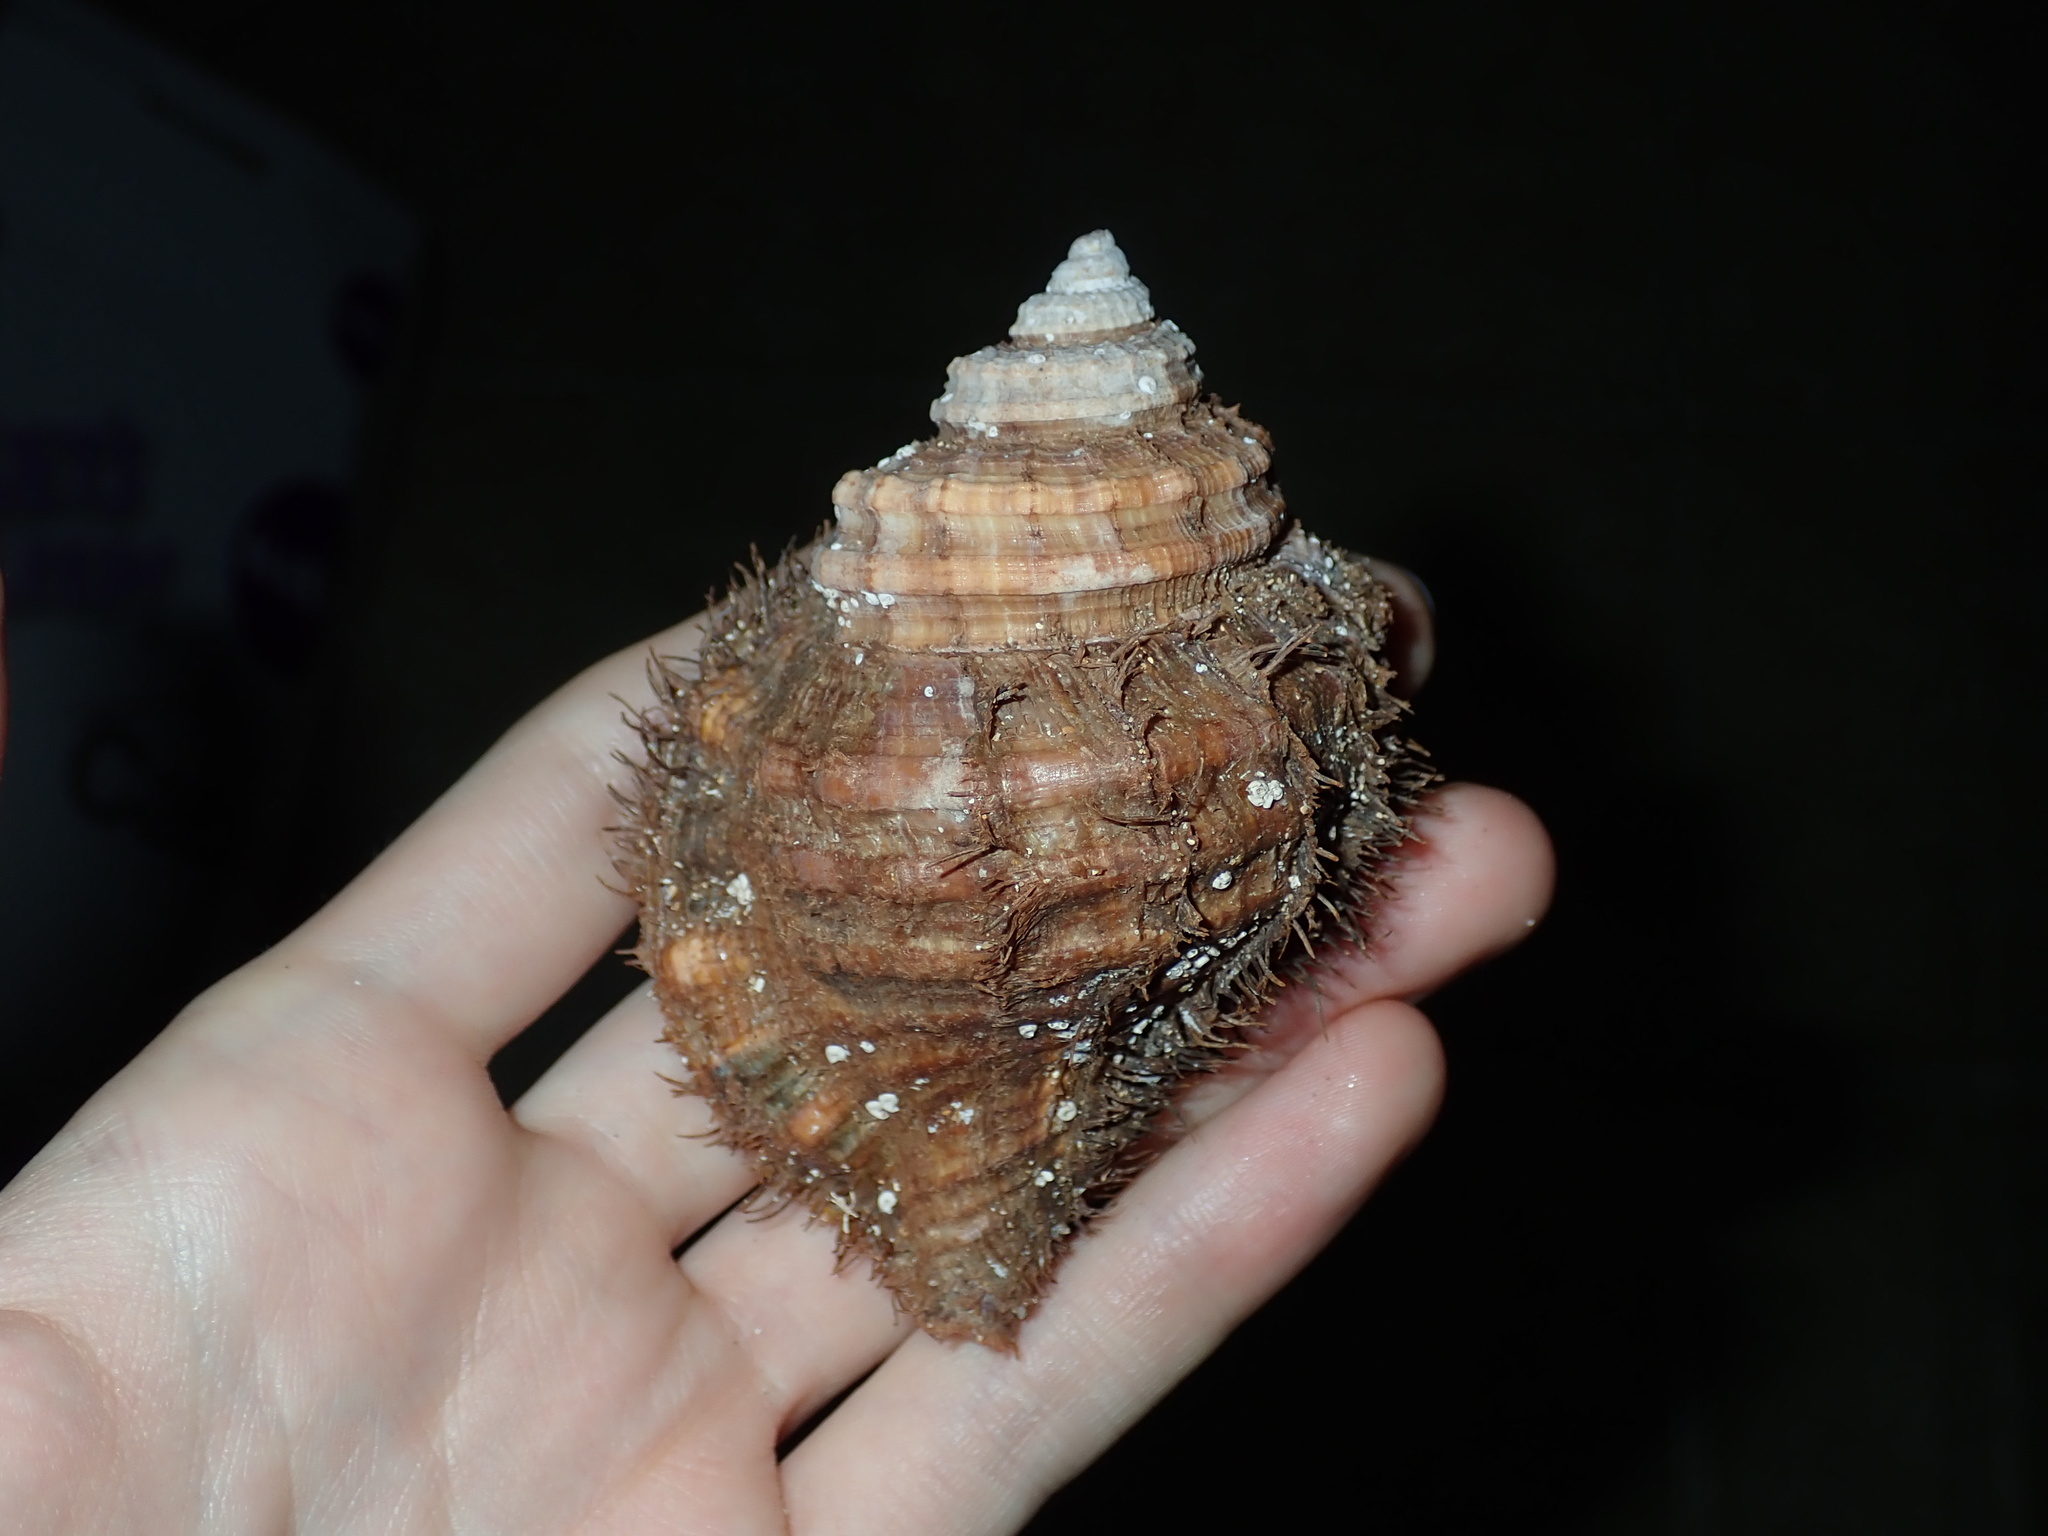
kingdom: Animalia
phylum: Mollusca
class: Gastropoda
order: Littorinimorpha
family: Cymatiidae
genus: Monoplex
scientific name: Monoplex parthenopeus
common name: Giant triton
